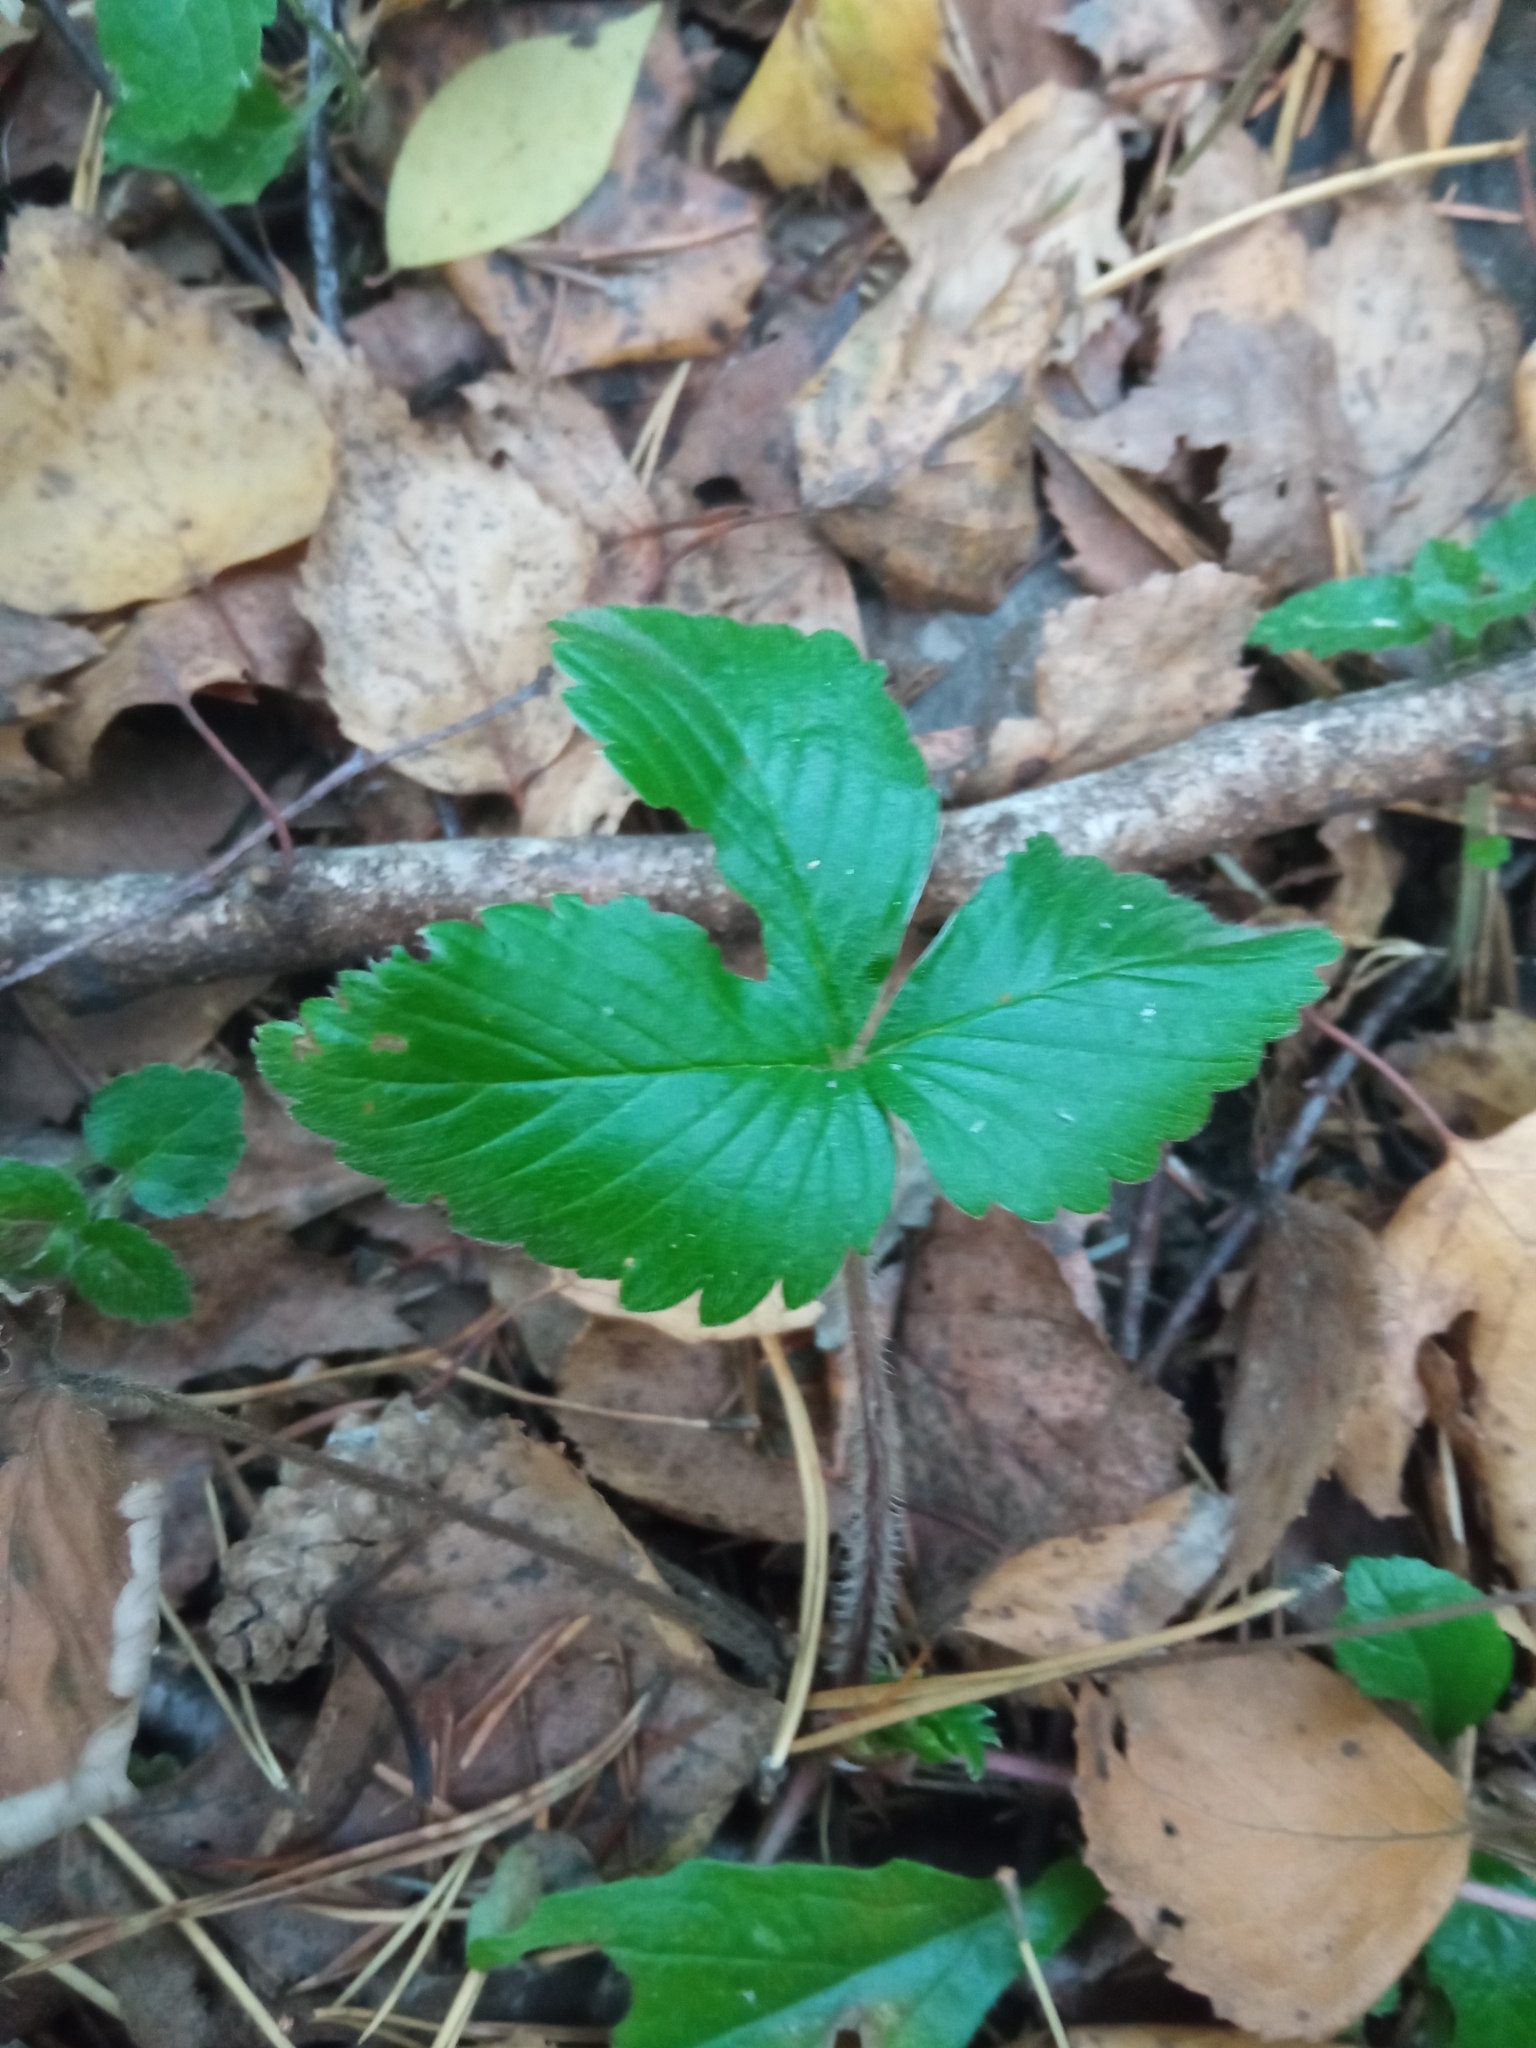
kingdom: Plantae
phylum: Tracheophyta
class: Magnoliopsida
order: Rosales
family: Rosaceae
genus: Fragaria
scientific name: Fragaria vesca
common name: Wild strawberry
